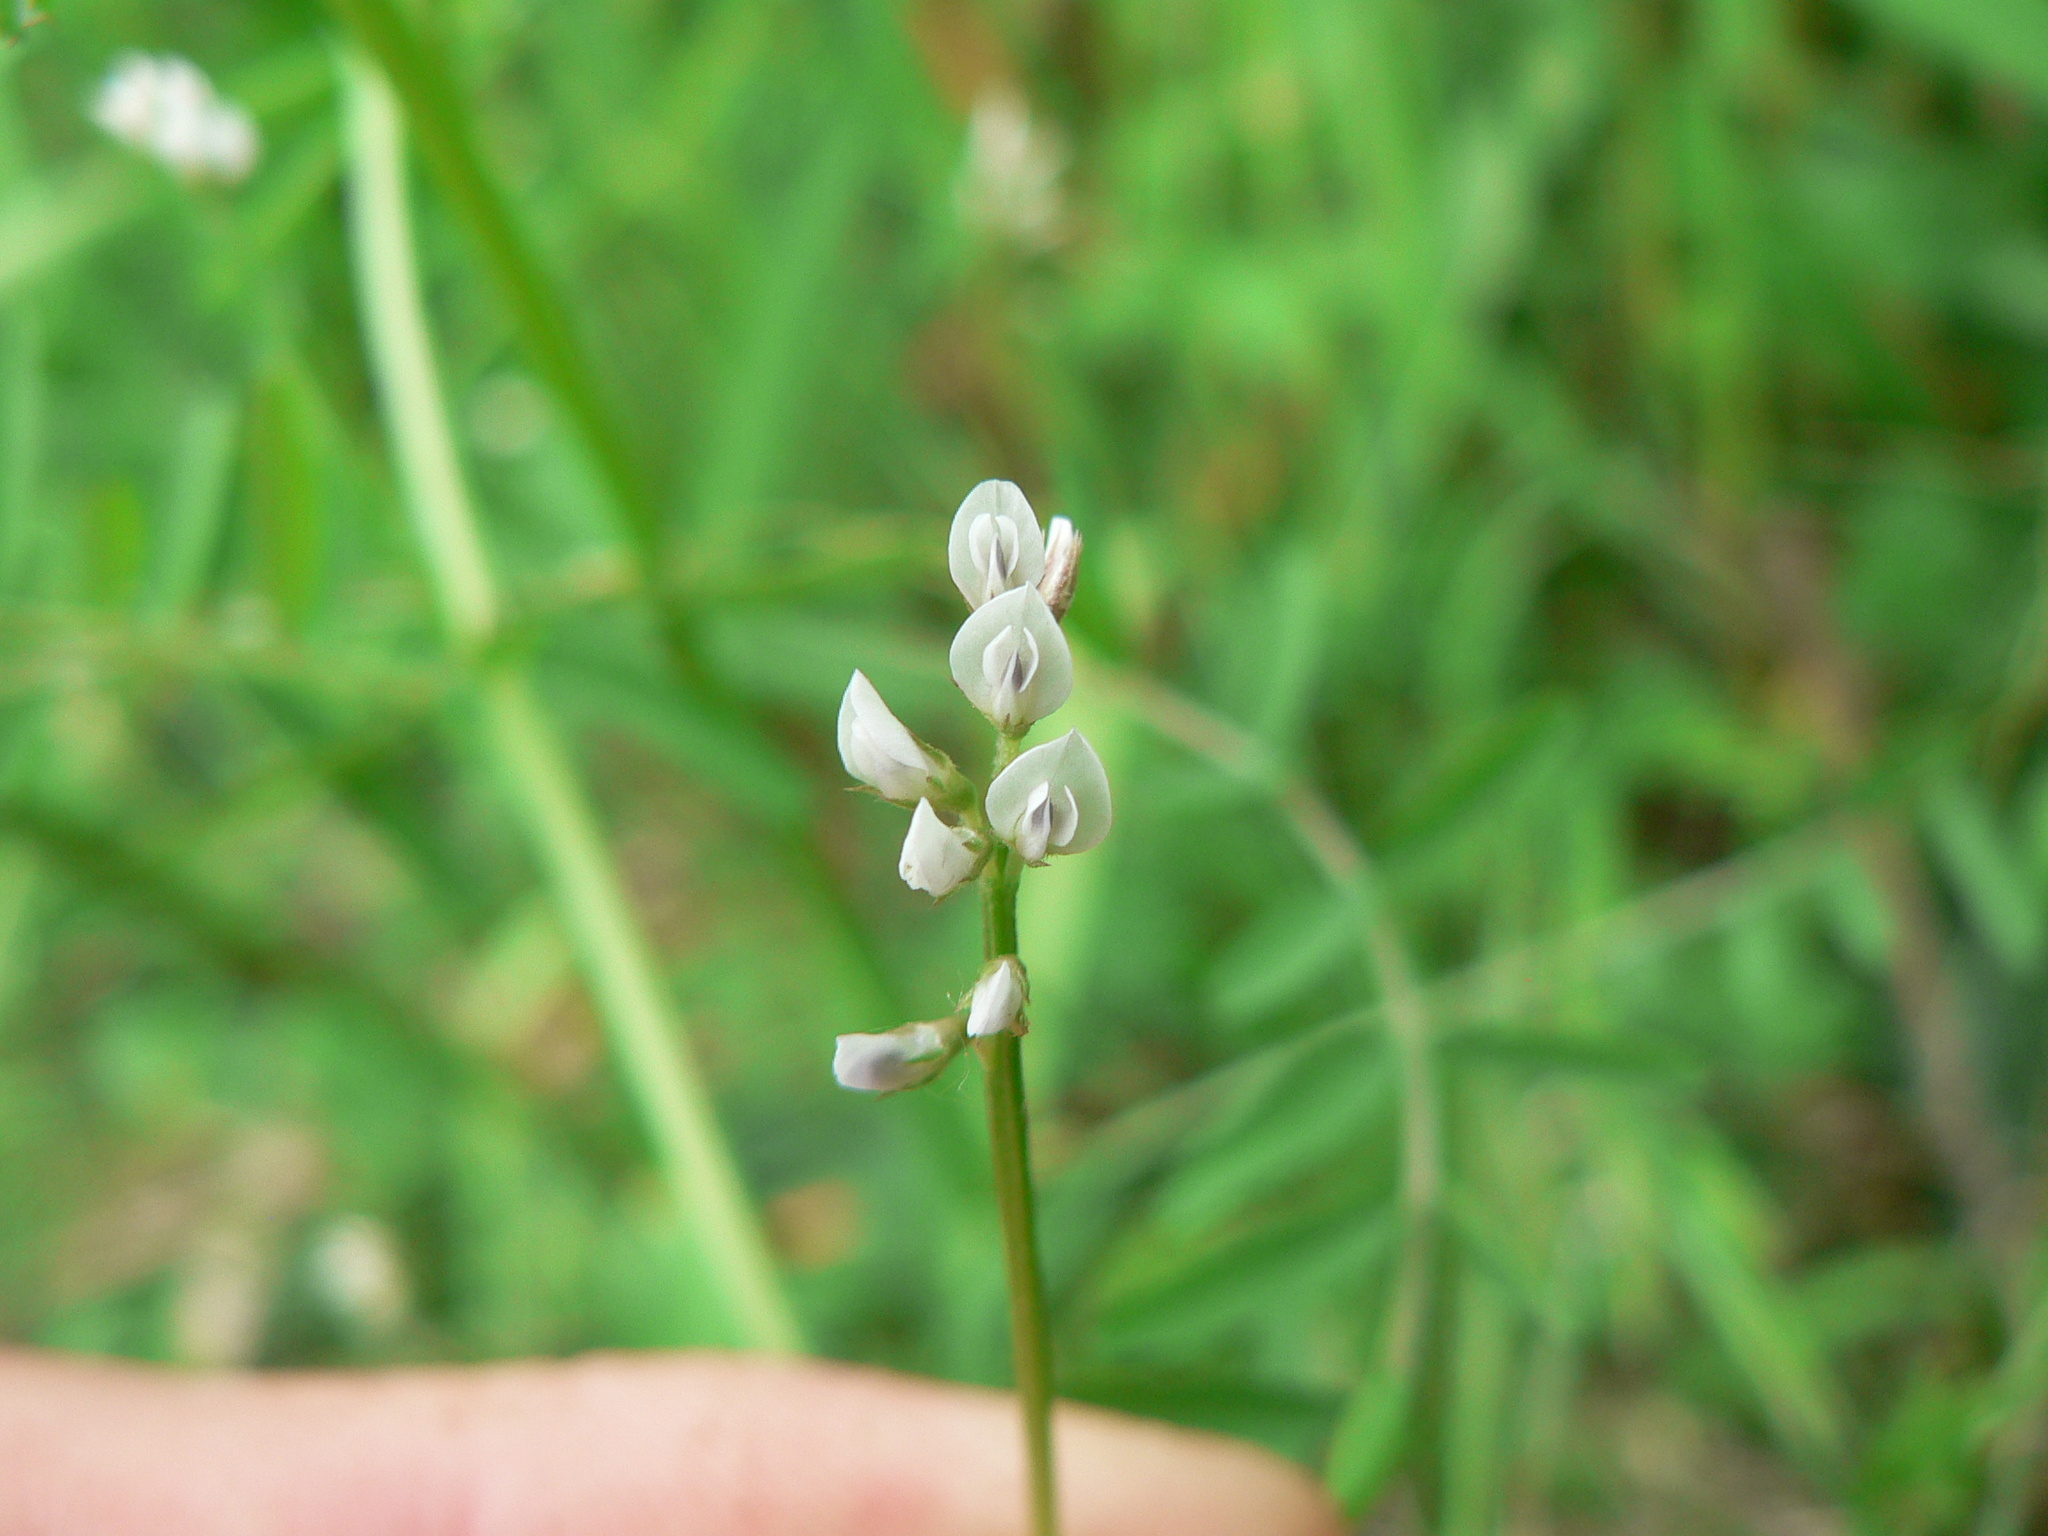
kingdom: Plantae
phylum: Tracheophyta
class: Magnoliopsida
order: Fabales
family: Fabaceae
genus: Vicia
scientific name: Vicia hirsuta
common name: Tiny vetch
